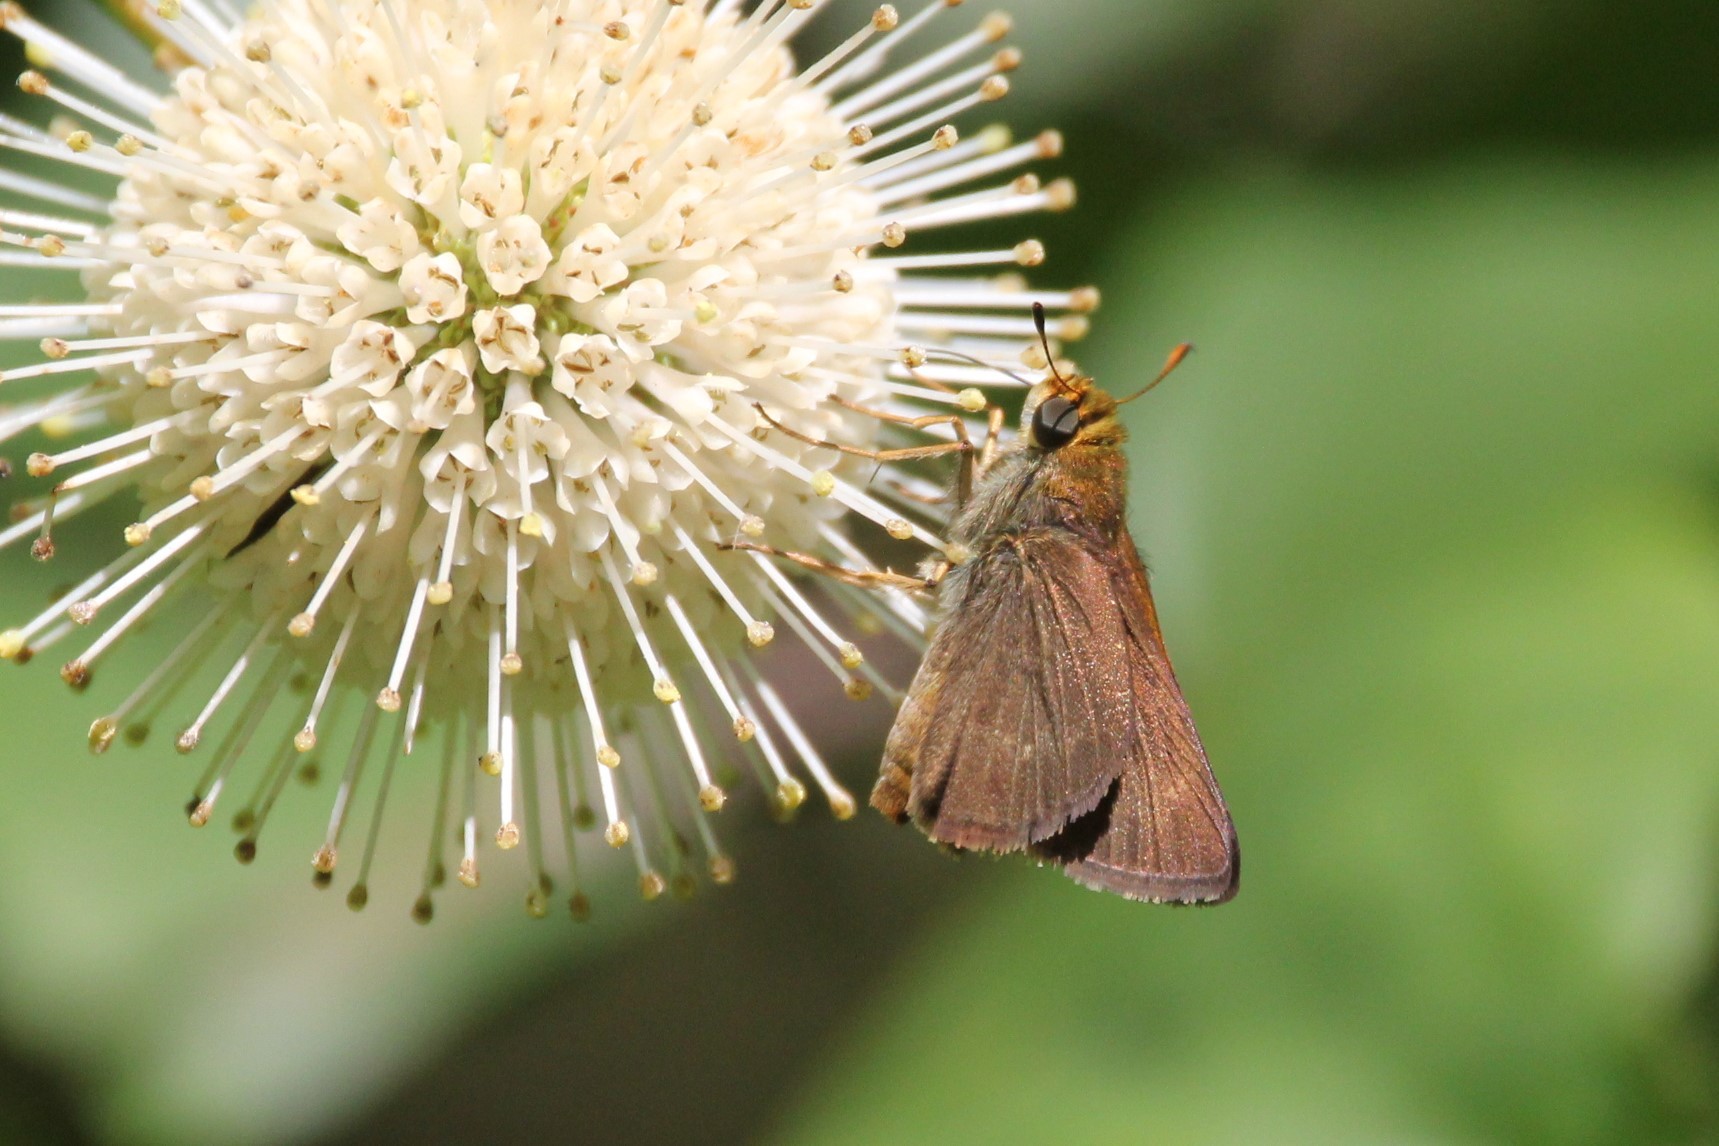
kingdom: Animalia
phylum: Arthropoda
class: Insecta
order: Lepidoptera
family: Hesperiidae
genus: Euphyes
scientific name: Euphyes vestris
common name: Dun skipper
